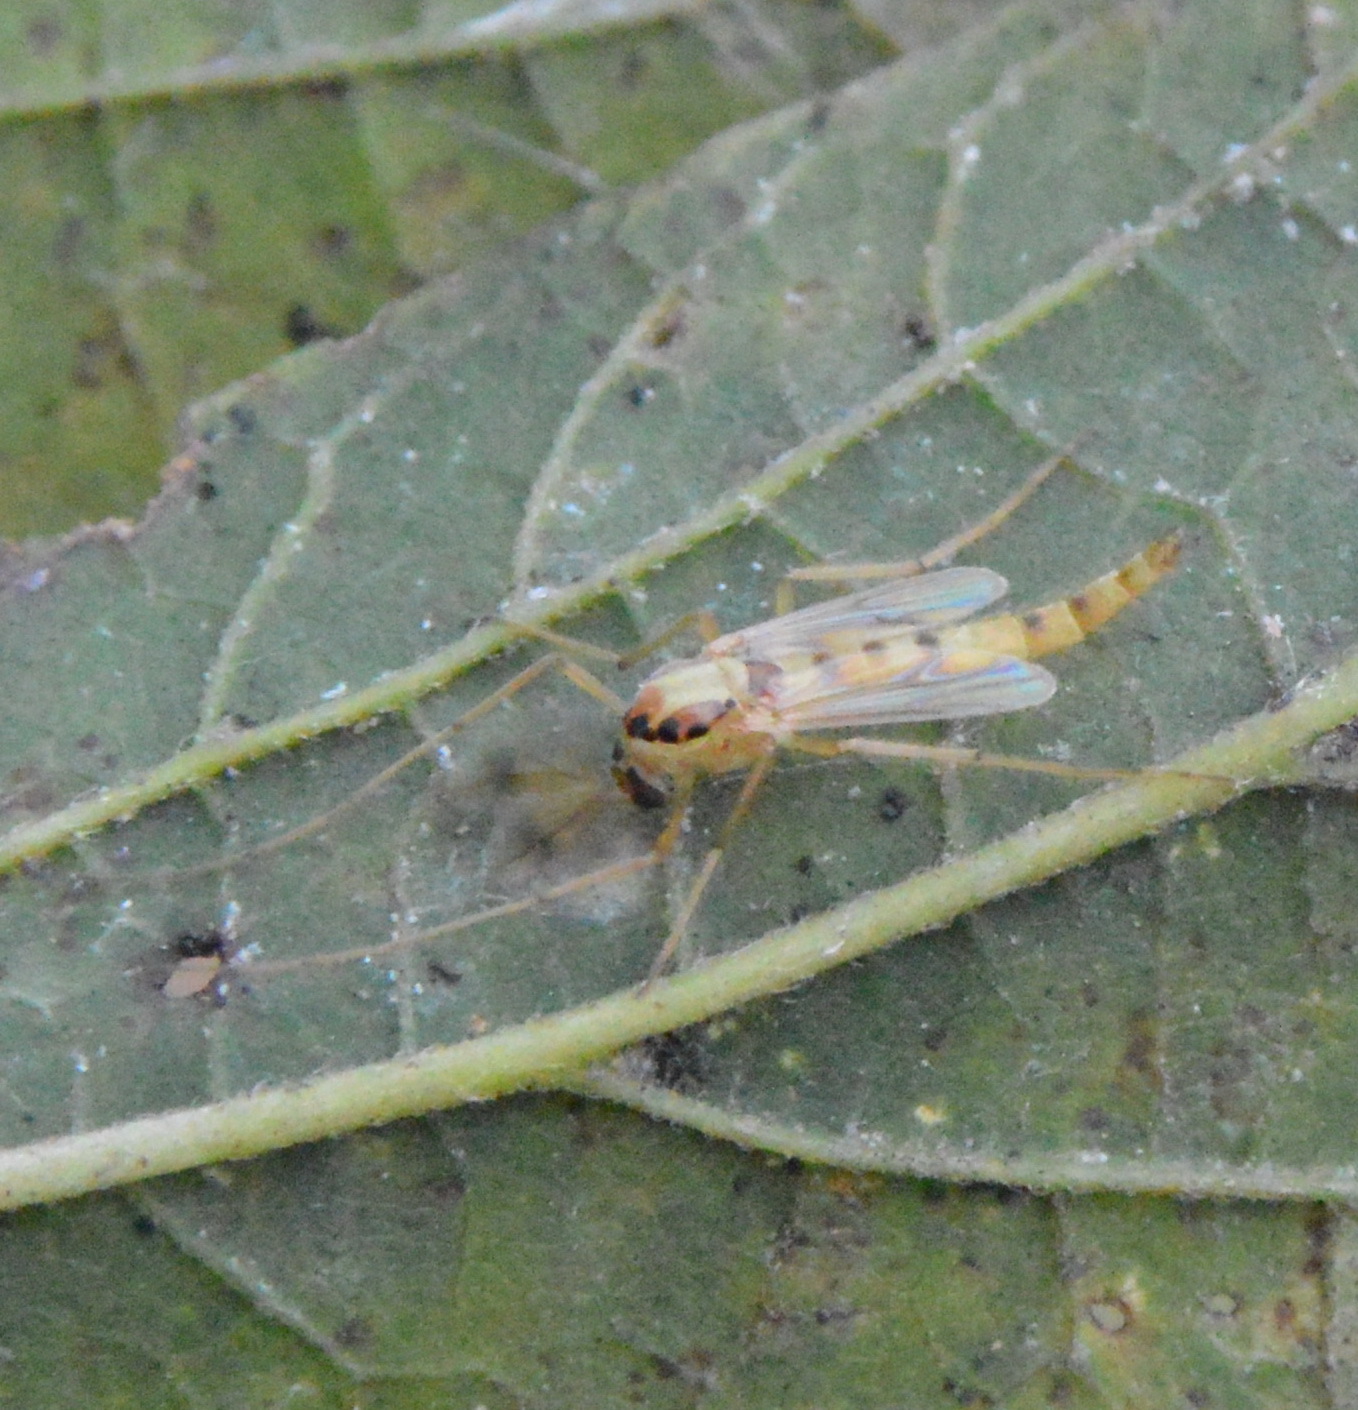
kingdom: Animalia
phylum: Arthropoda
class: Insecta
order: Diptera
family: Chironomidae
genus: Goeldichironomus
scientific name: Goeldichironomus carus
